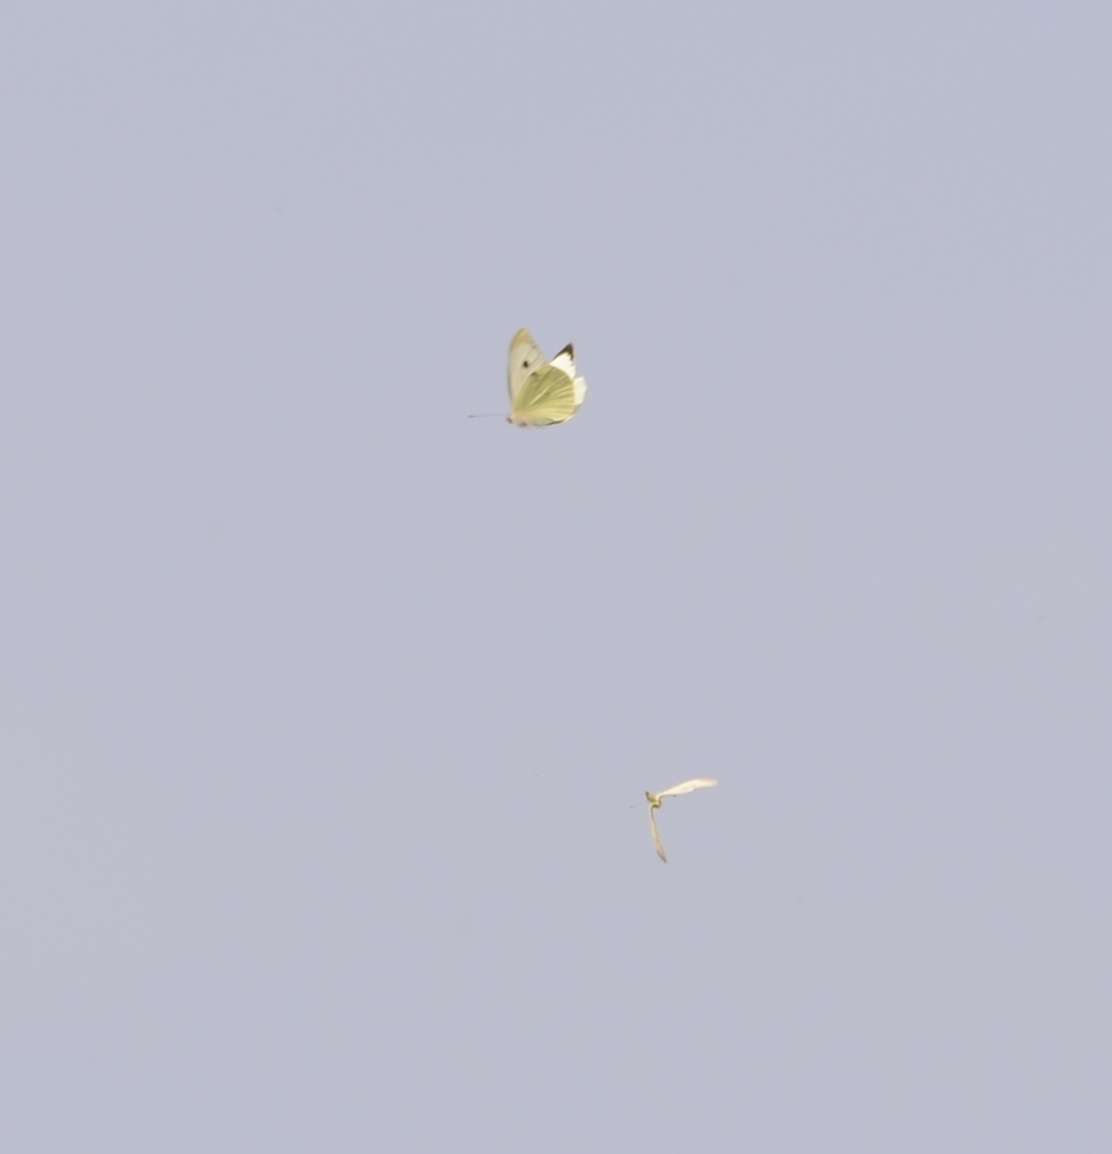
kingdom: Animalia
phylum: Arthropoda
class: Insecta
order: Lepidoptera
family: Pieridae
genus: Pieris
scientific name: Pieris brassicae
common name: Large white
